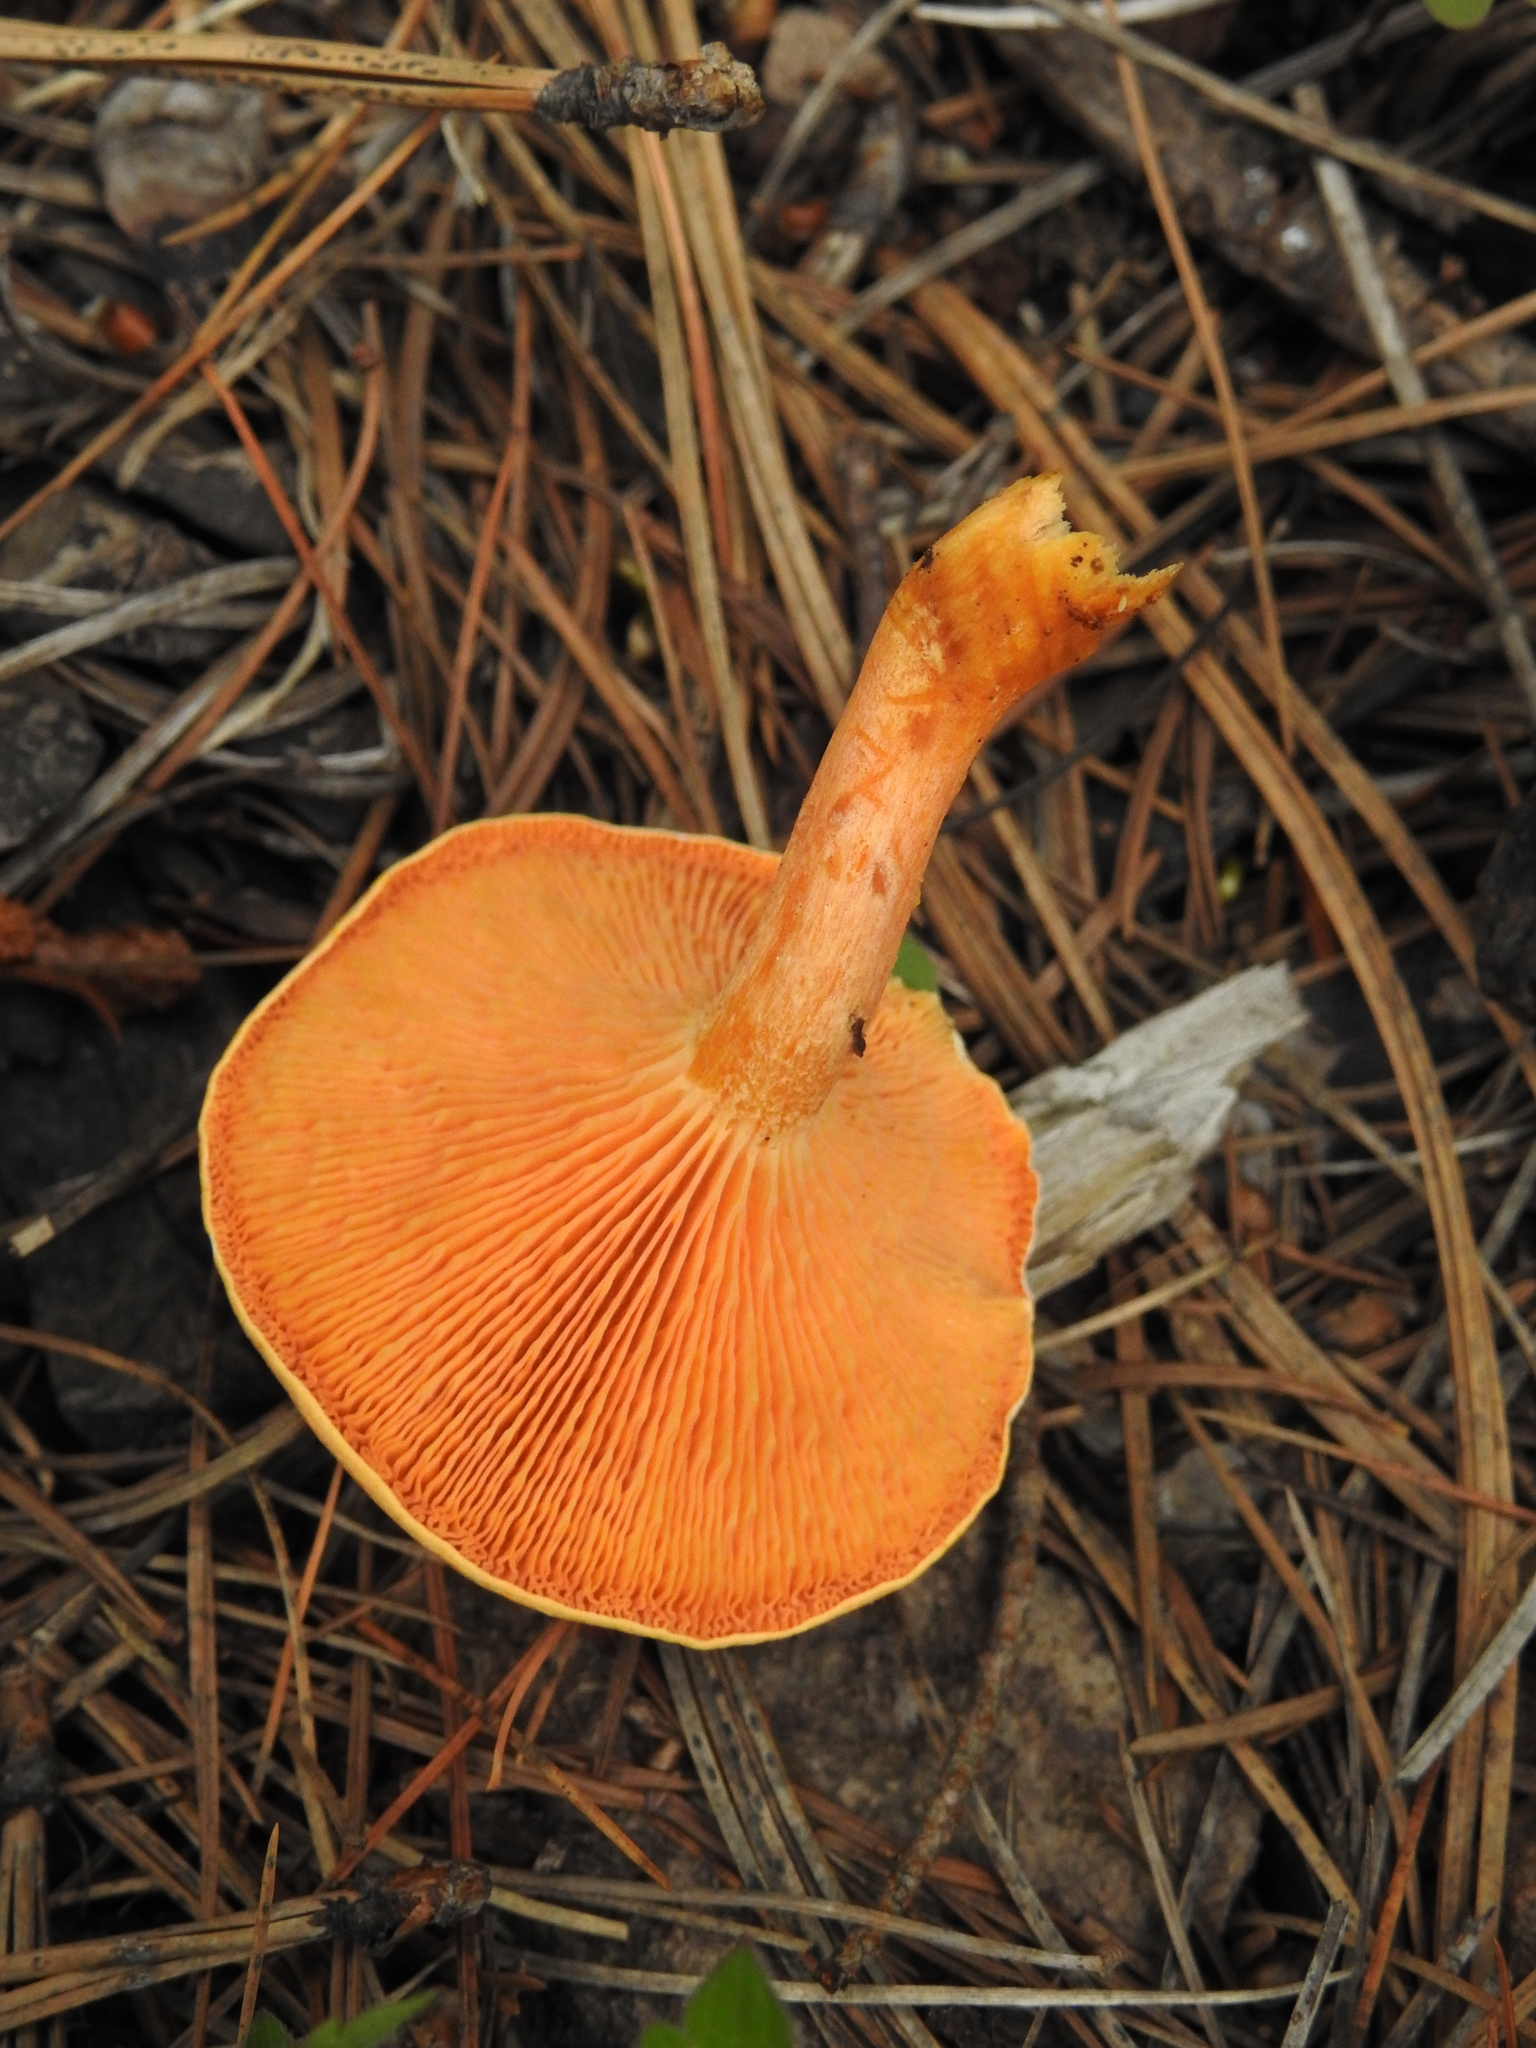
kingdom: Fungi
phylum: Basidiomycota
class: Agaricomycetes
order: Boletales
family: Hygrophoropsidaceae
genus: Hygrophoropsis
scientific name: Hygrophoropsis aurantiaca
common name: False chanterelle
